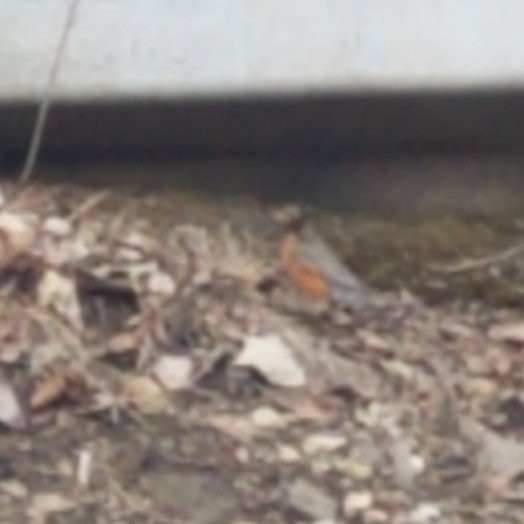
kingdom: Animalia
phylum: Chordata
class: Aves
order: Passeriformes
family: Turdidae
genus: Turdus
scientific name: Turdus migratorius
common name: American robin
